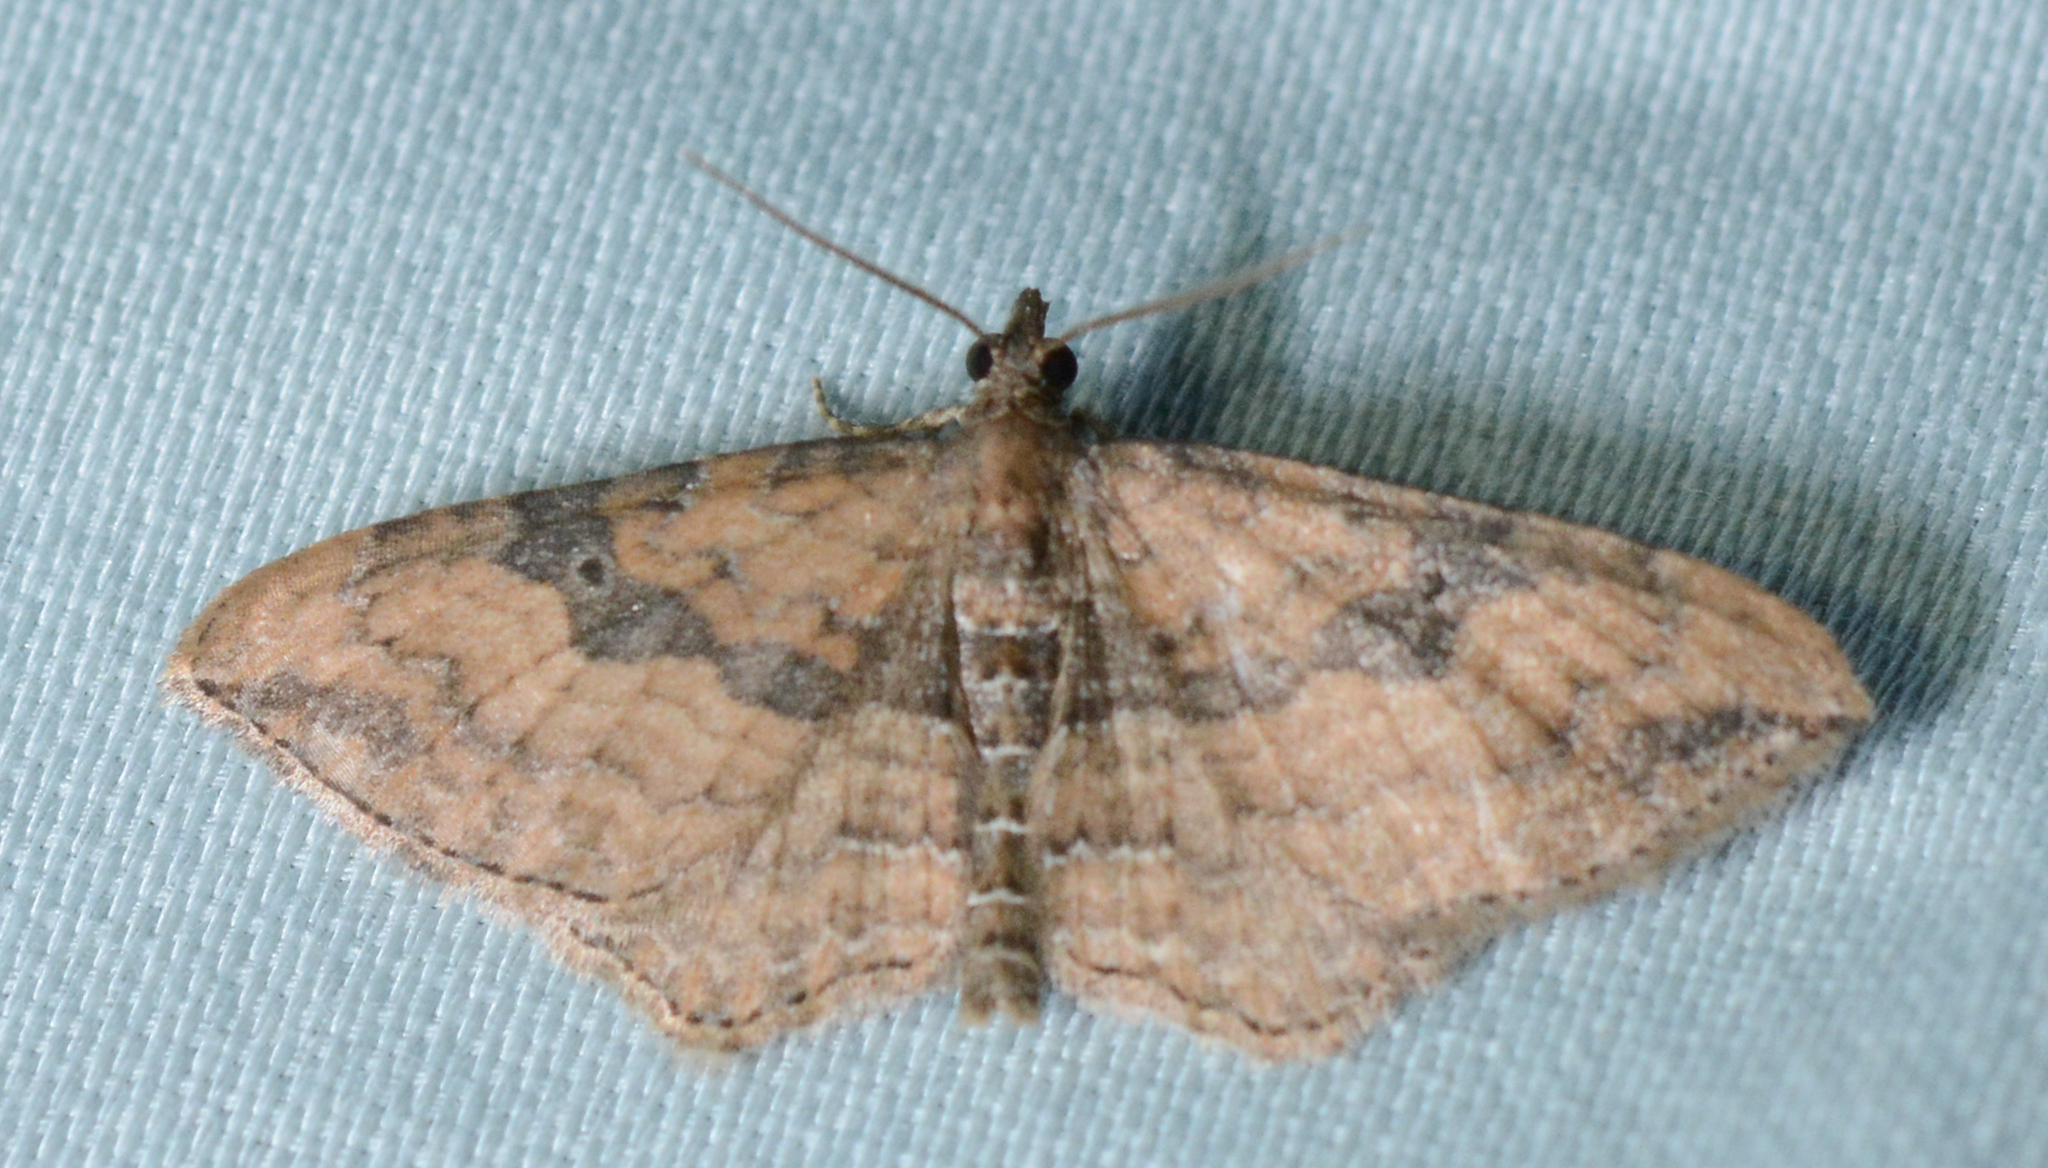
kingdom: Animalia
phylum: Arthropoda
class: Insecta
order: Lepidoptera
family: Geometridae
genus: Orthonama
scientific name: Orthonama obstipata
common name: The gem
